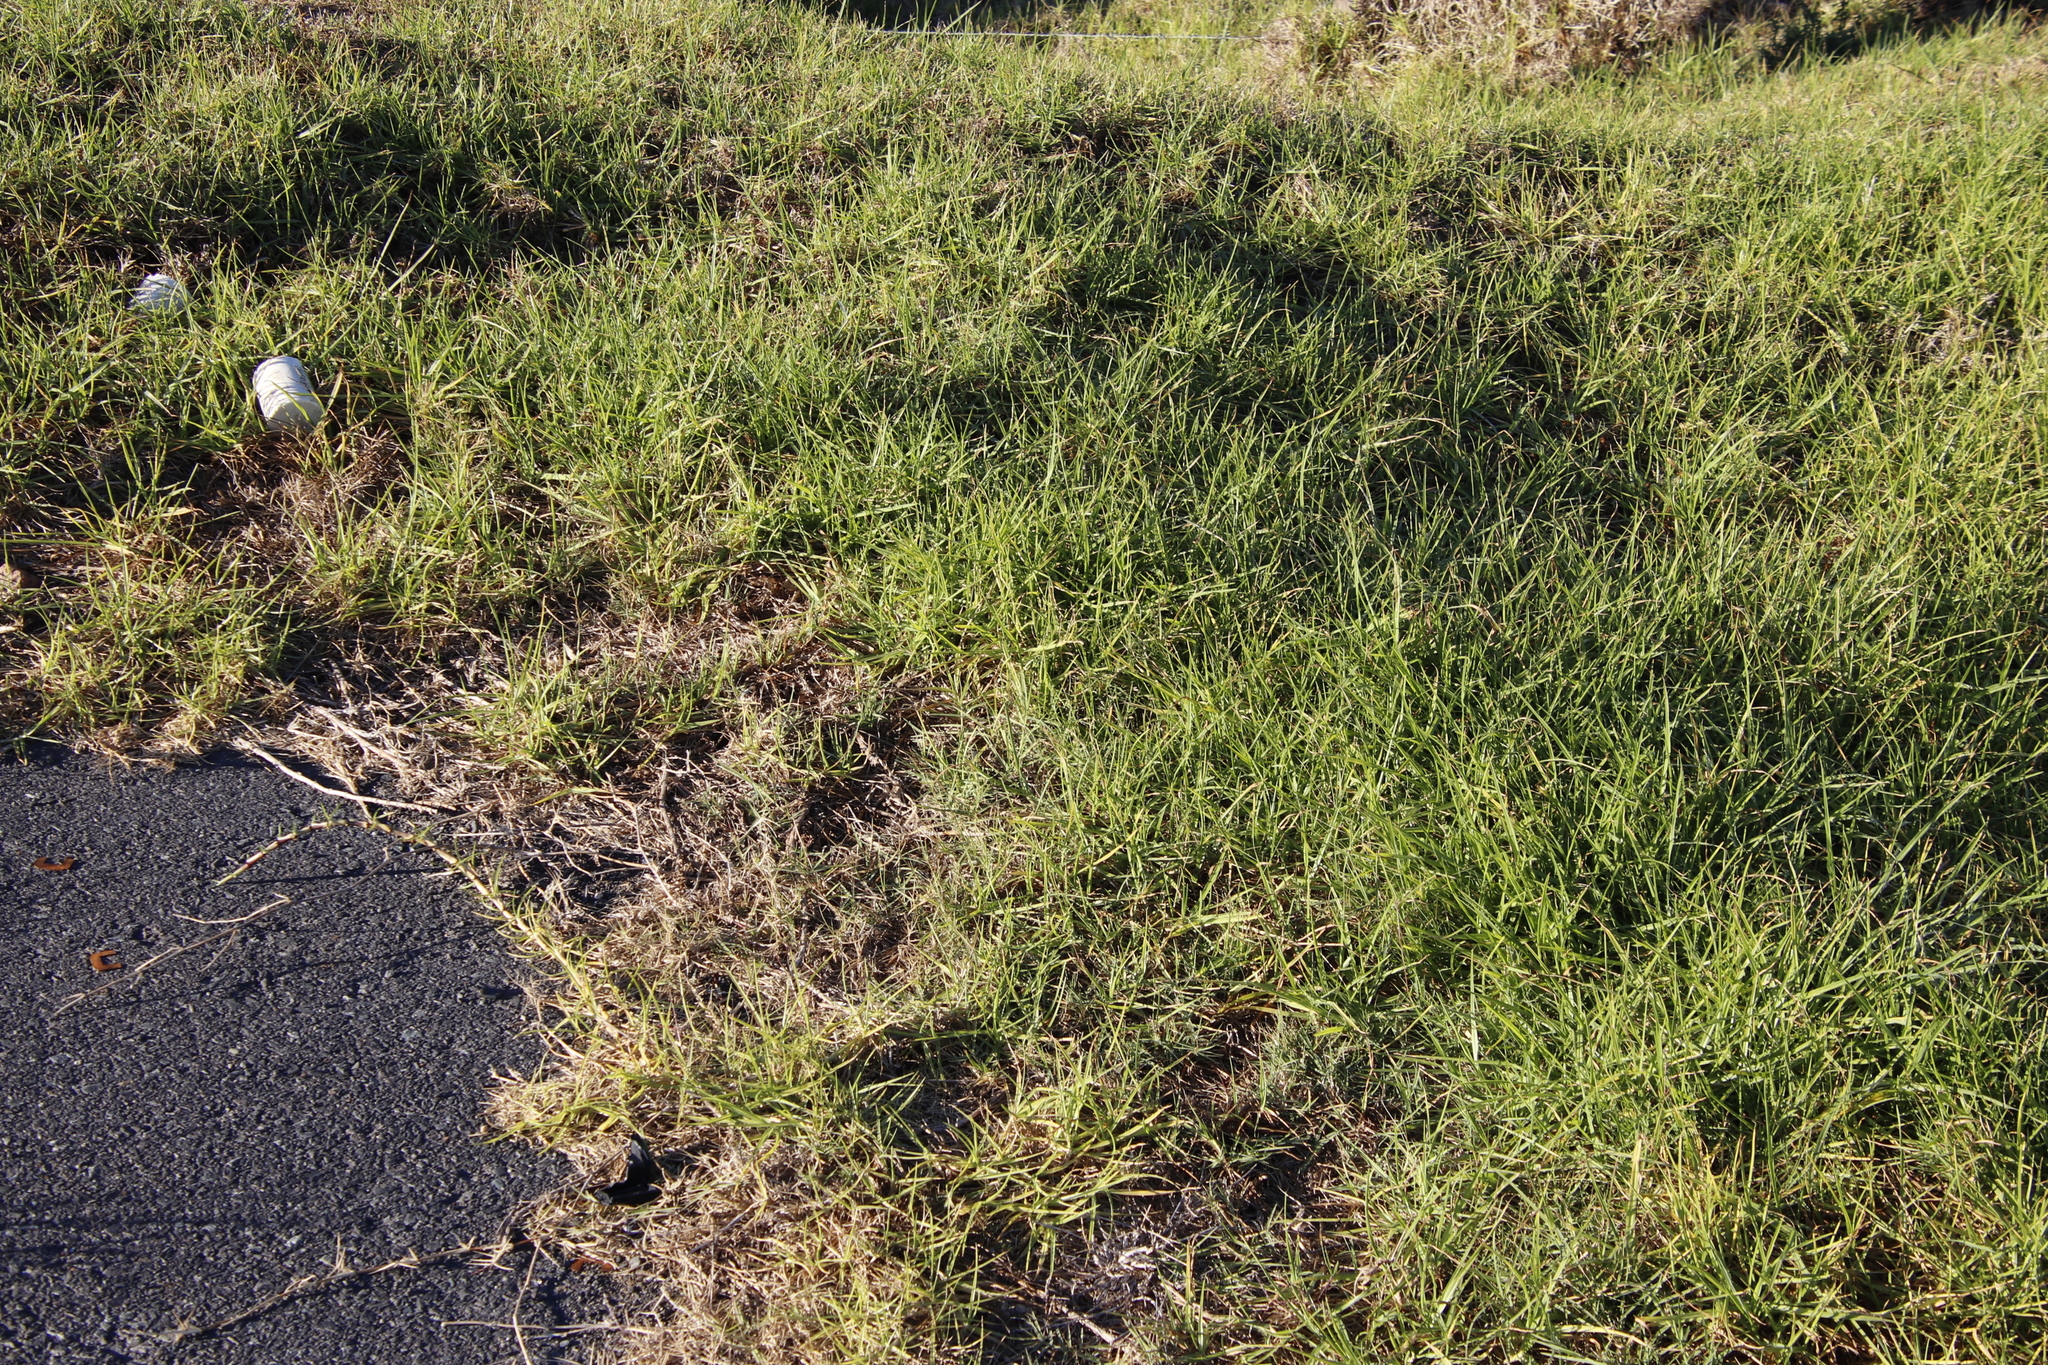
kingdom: Plantae
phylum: Tracheophyta
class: Liliopsida
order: Poales
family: Poaceae
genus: Cenchrus
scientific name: Cenchrus clandestinus
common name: Kikuyugrass
